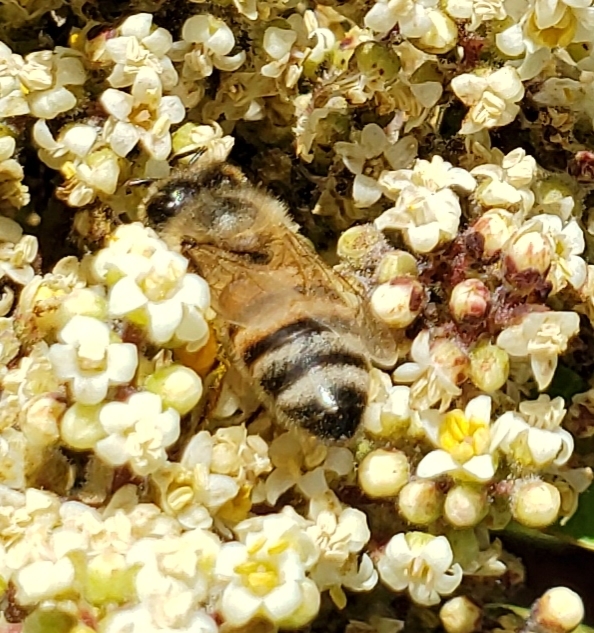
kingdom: Animalia
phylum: Arthropoda
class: Insecta
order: Hymenoptera
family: Apidae
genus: Apis
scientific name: Apis mellifera
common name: Honey bee
